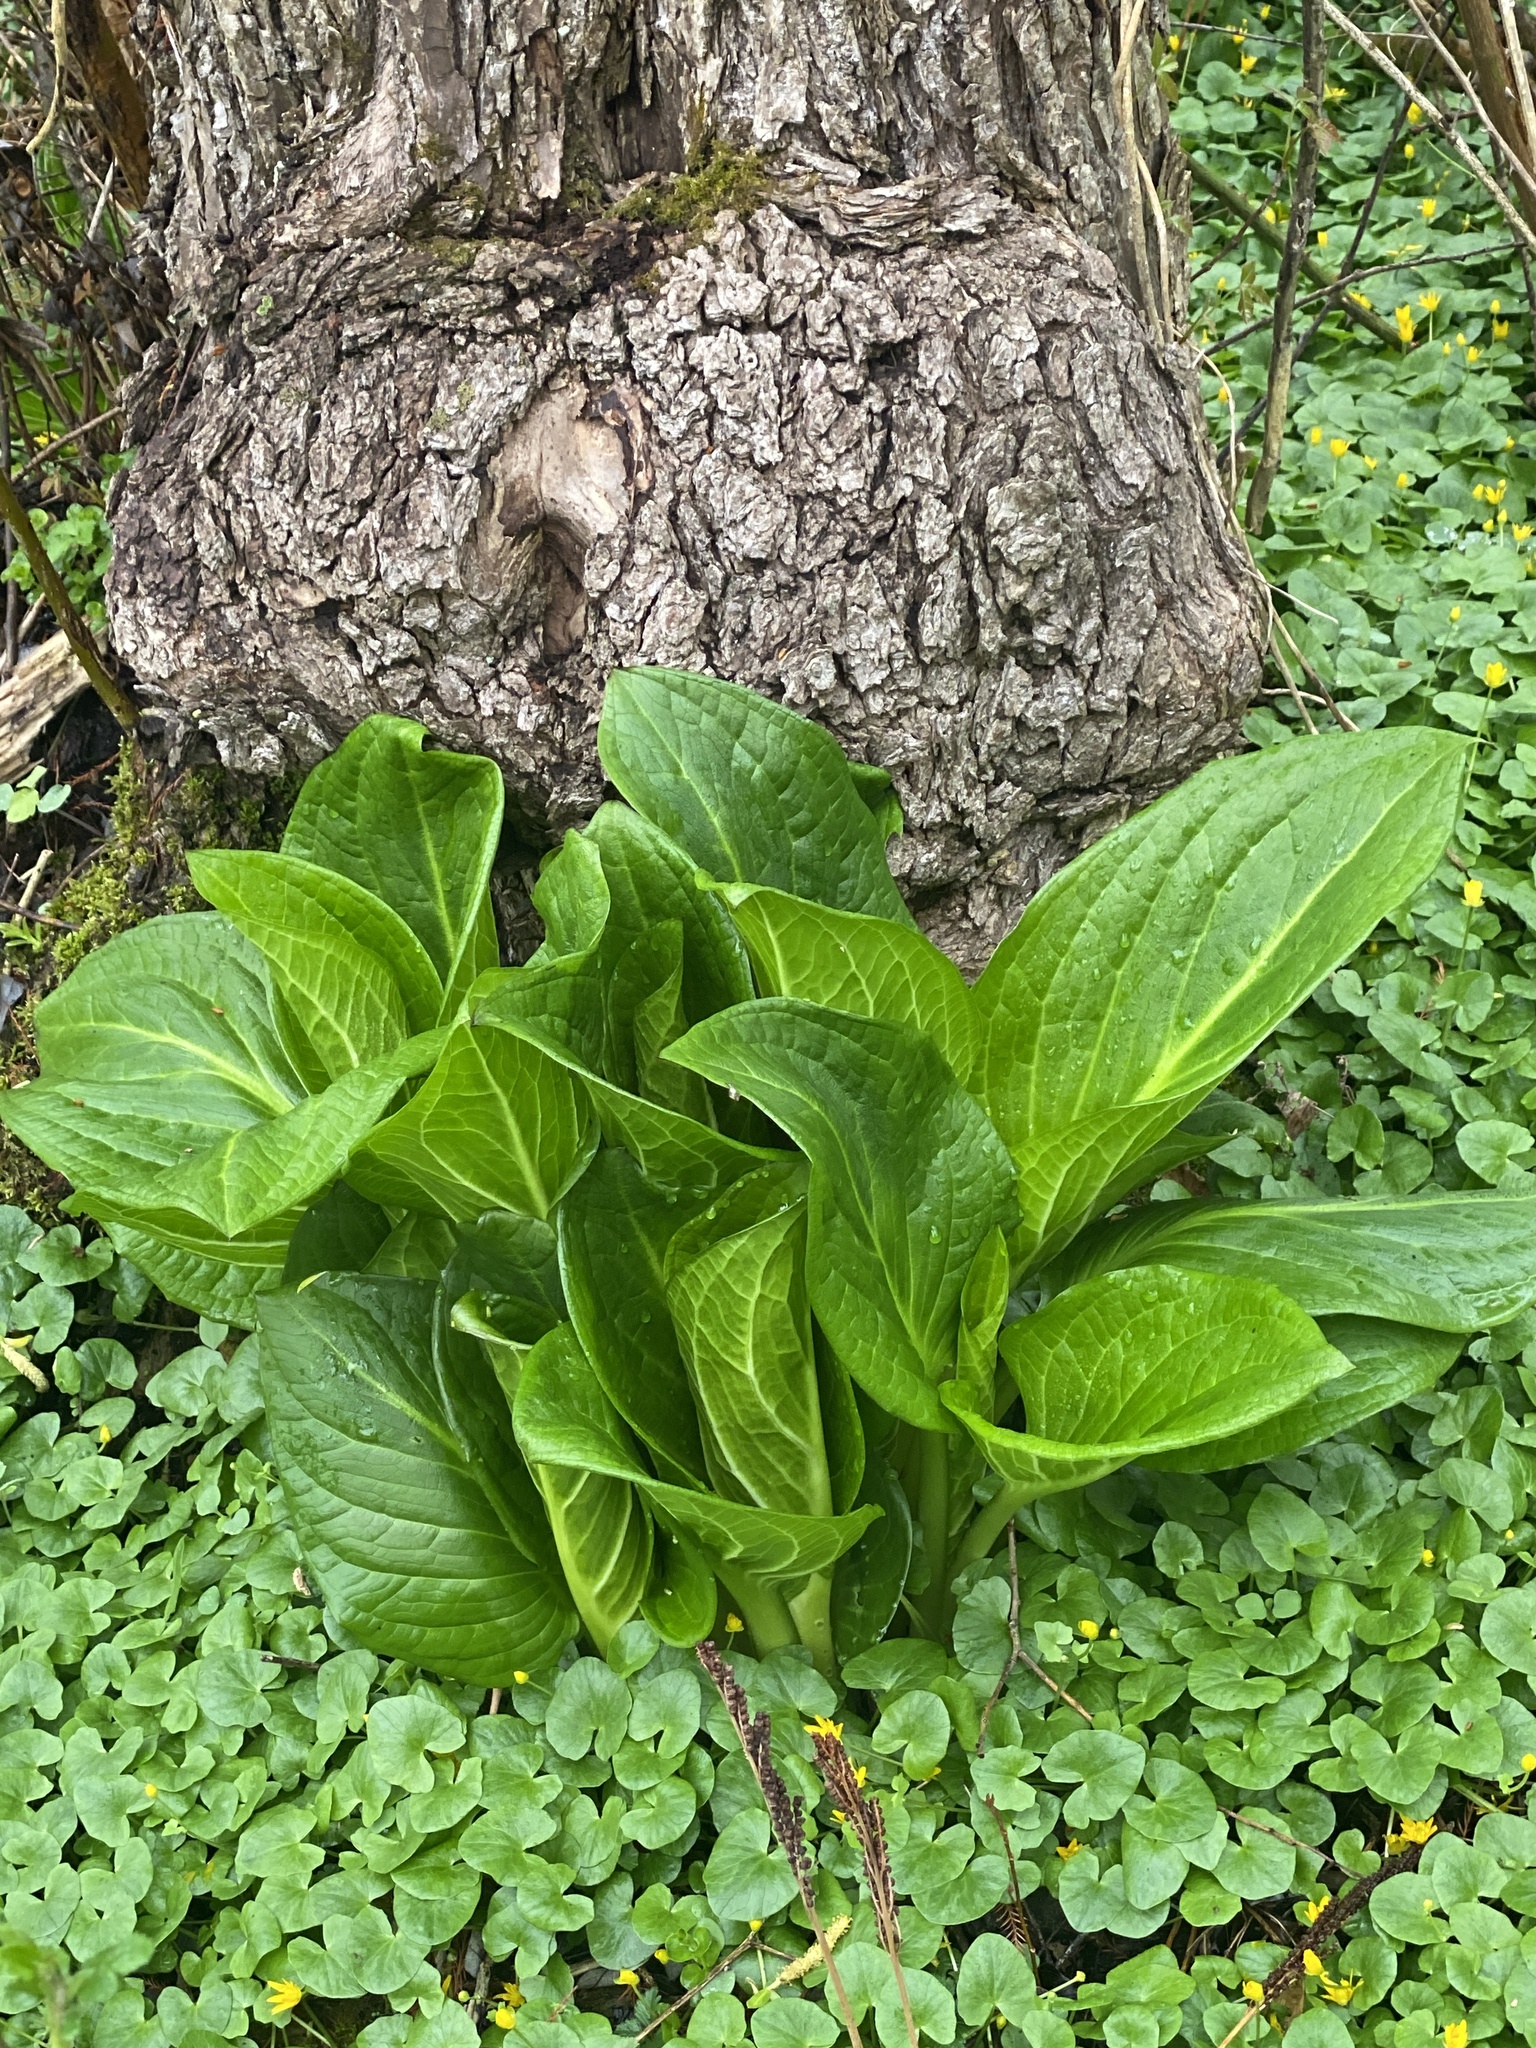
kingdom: Plantae
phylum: Tracheophyta
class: Liliopsida
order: Alismatales
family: Araceae
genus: Symplocarpus
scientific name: Symplocarpus foetidus
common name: Eastern skunk cabbage
